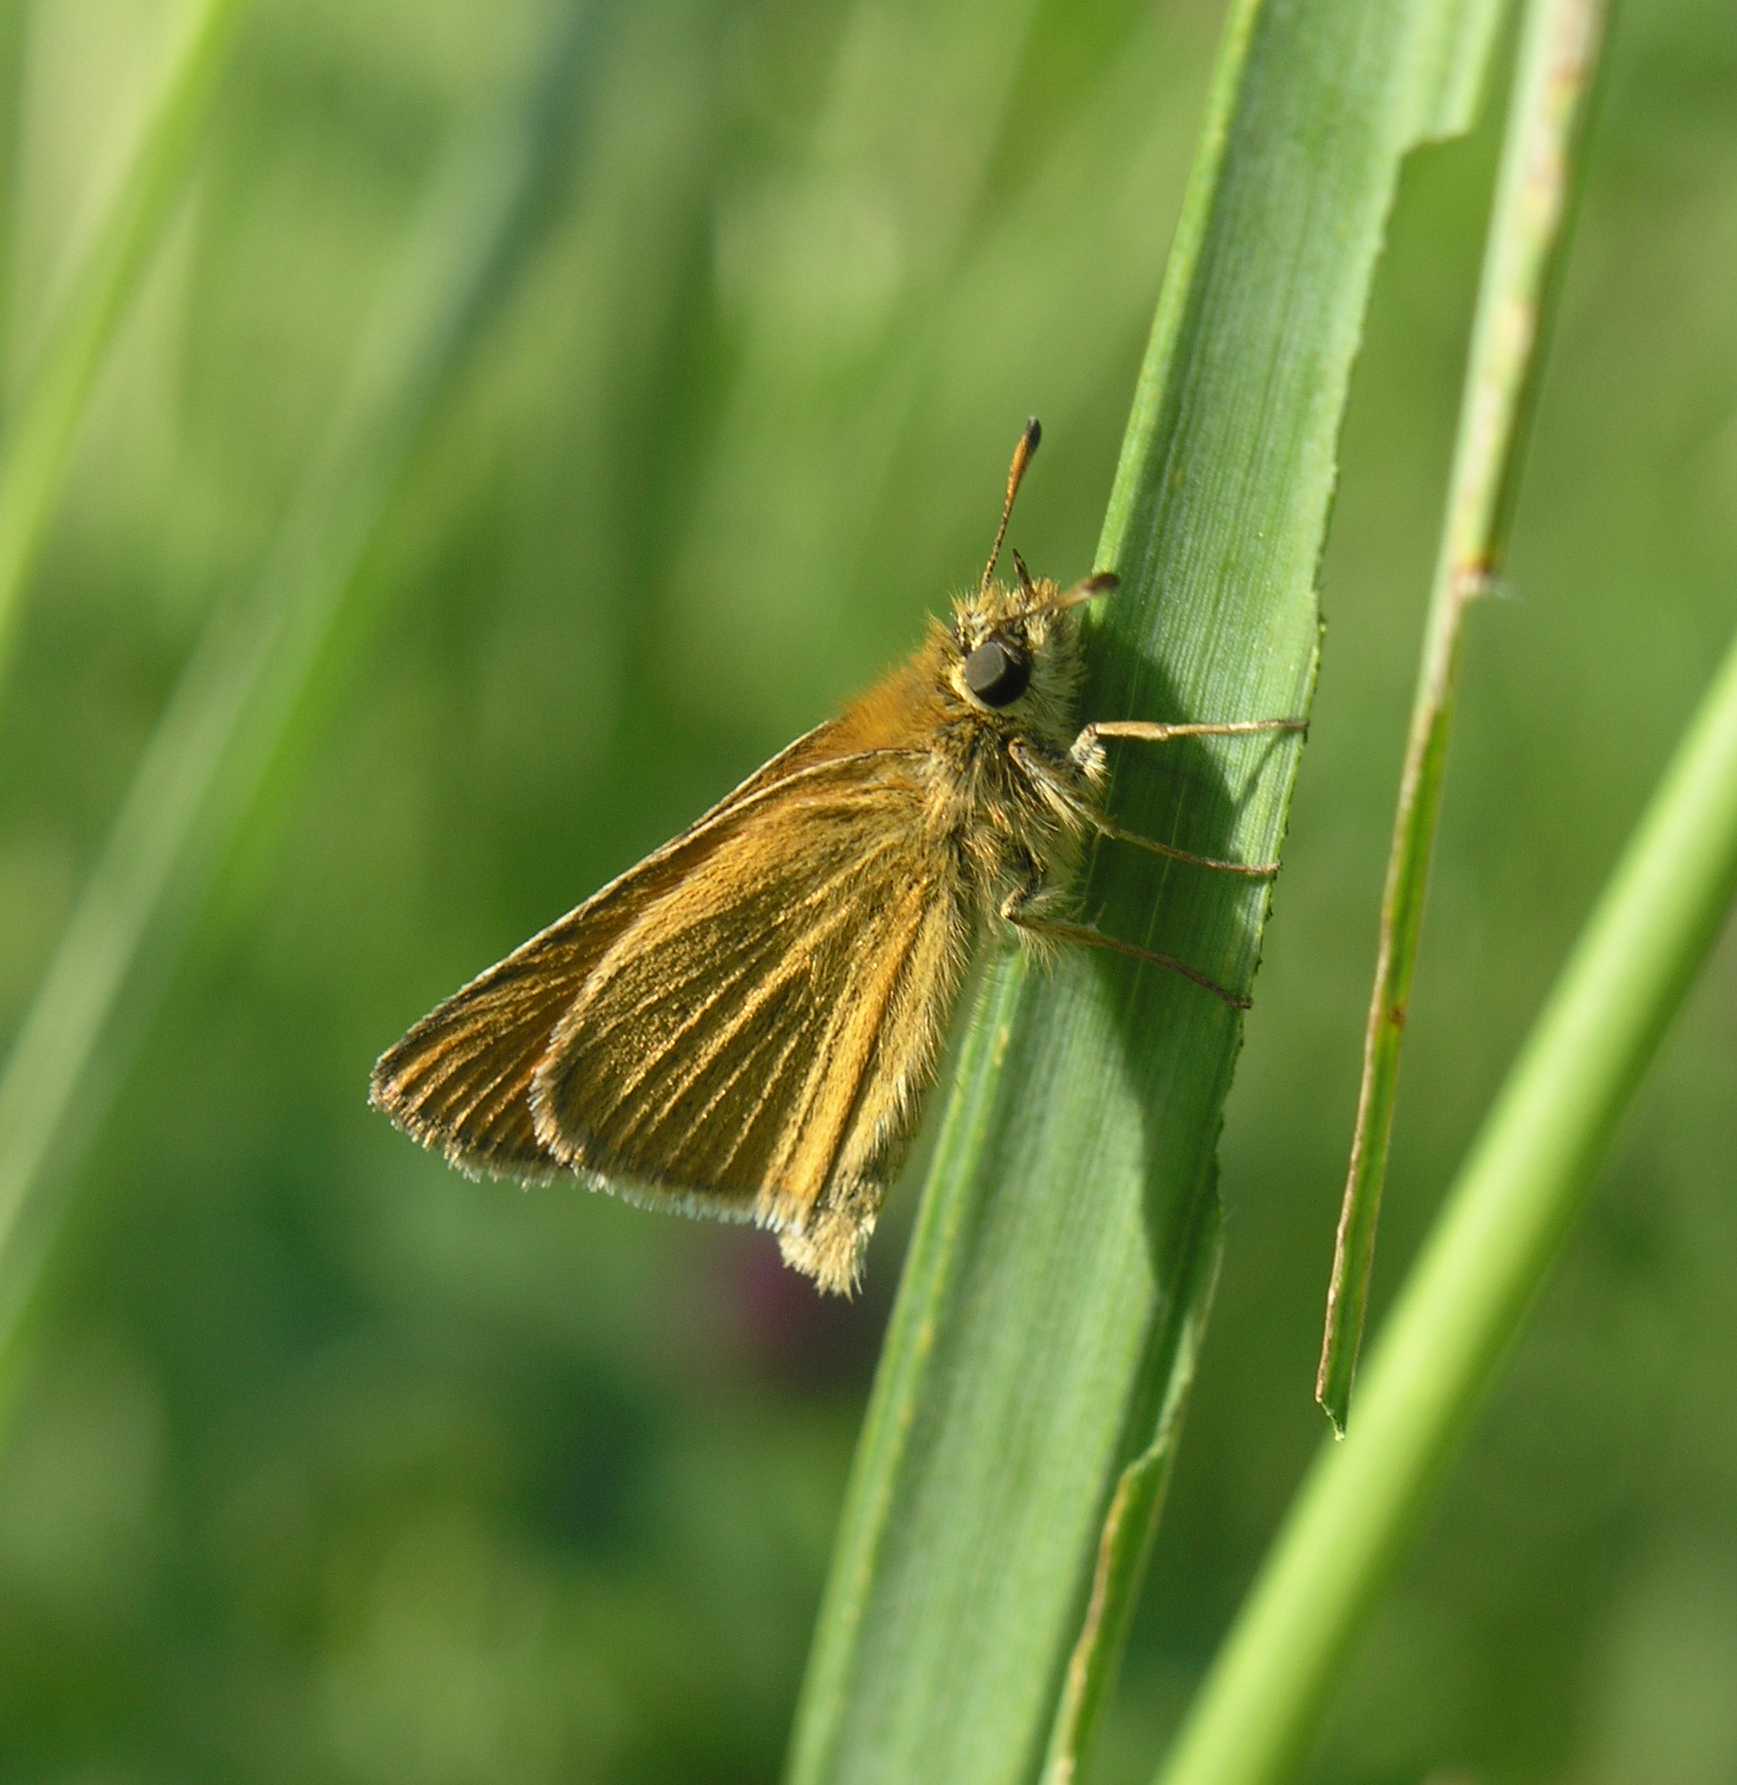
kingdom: Animalia
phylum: Arthropoda
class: Insecta
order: Lepidoptera
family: Hesperiidae
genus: Thymelicus
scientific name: Thymelicus lineola
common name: Essex skipper
